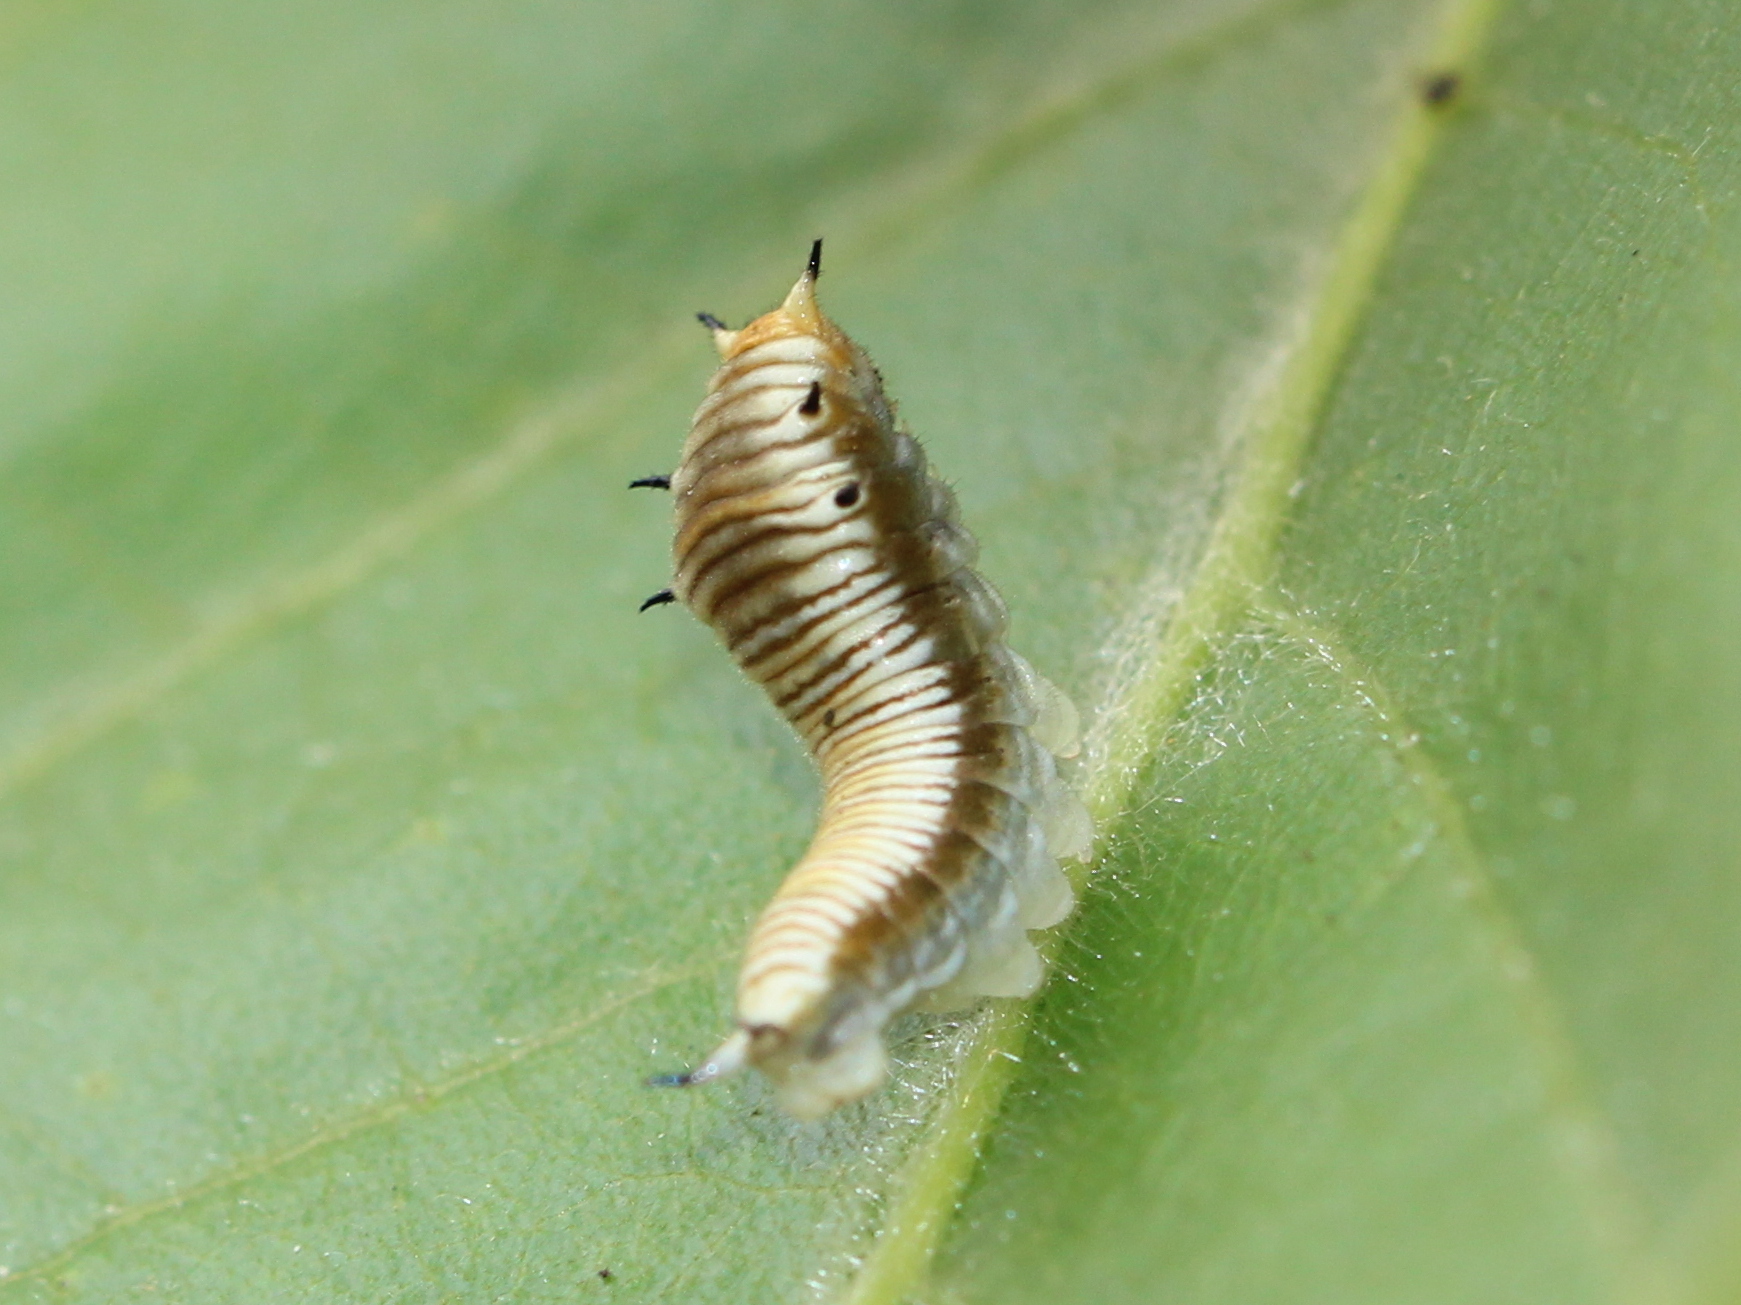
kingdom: Animalia
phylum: Arthropoda
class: Insecta
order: Lepidoptera
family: Papilionidae
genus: Graphium
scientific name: Graphium nomius
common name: Spot swordtail
